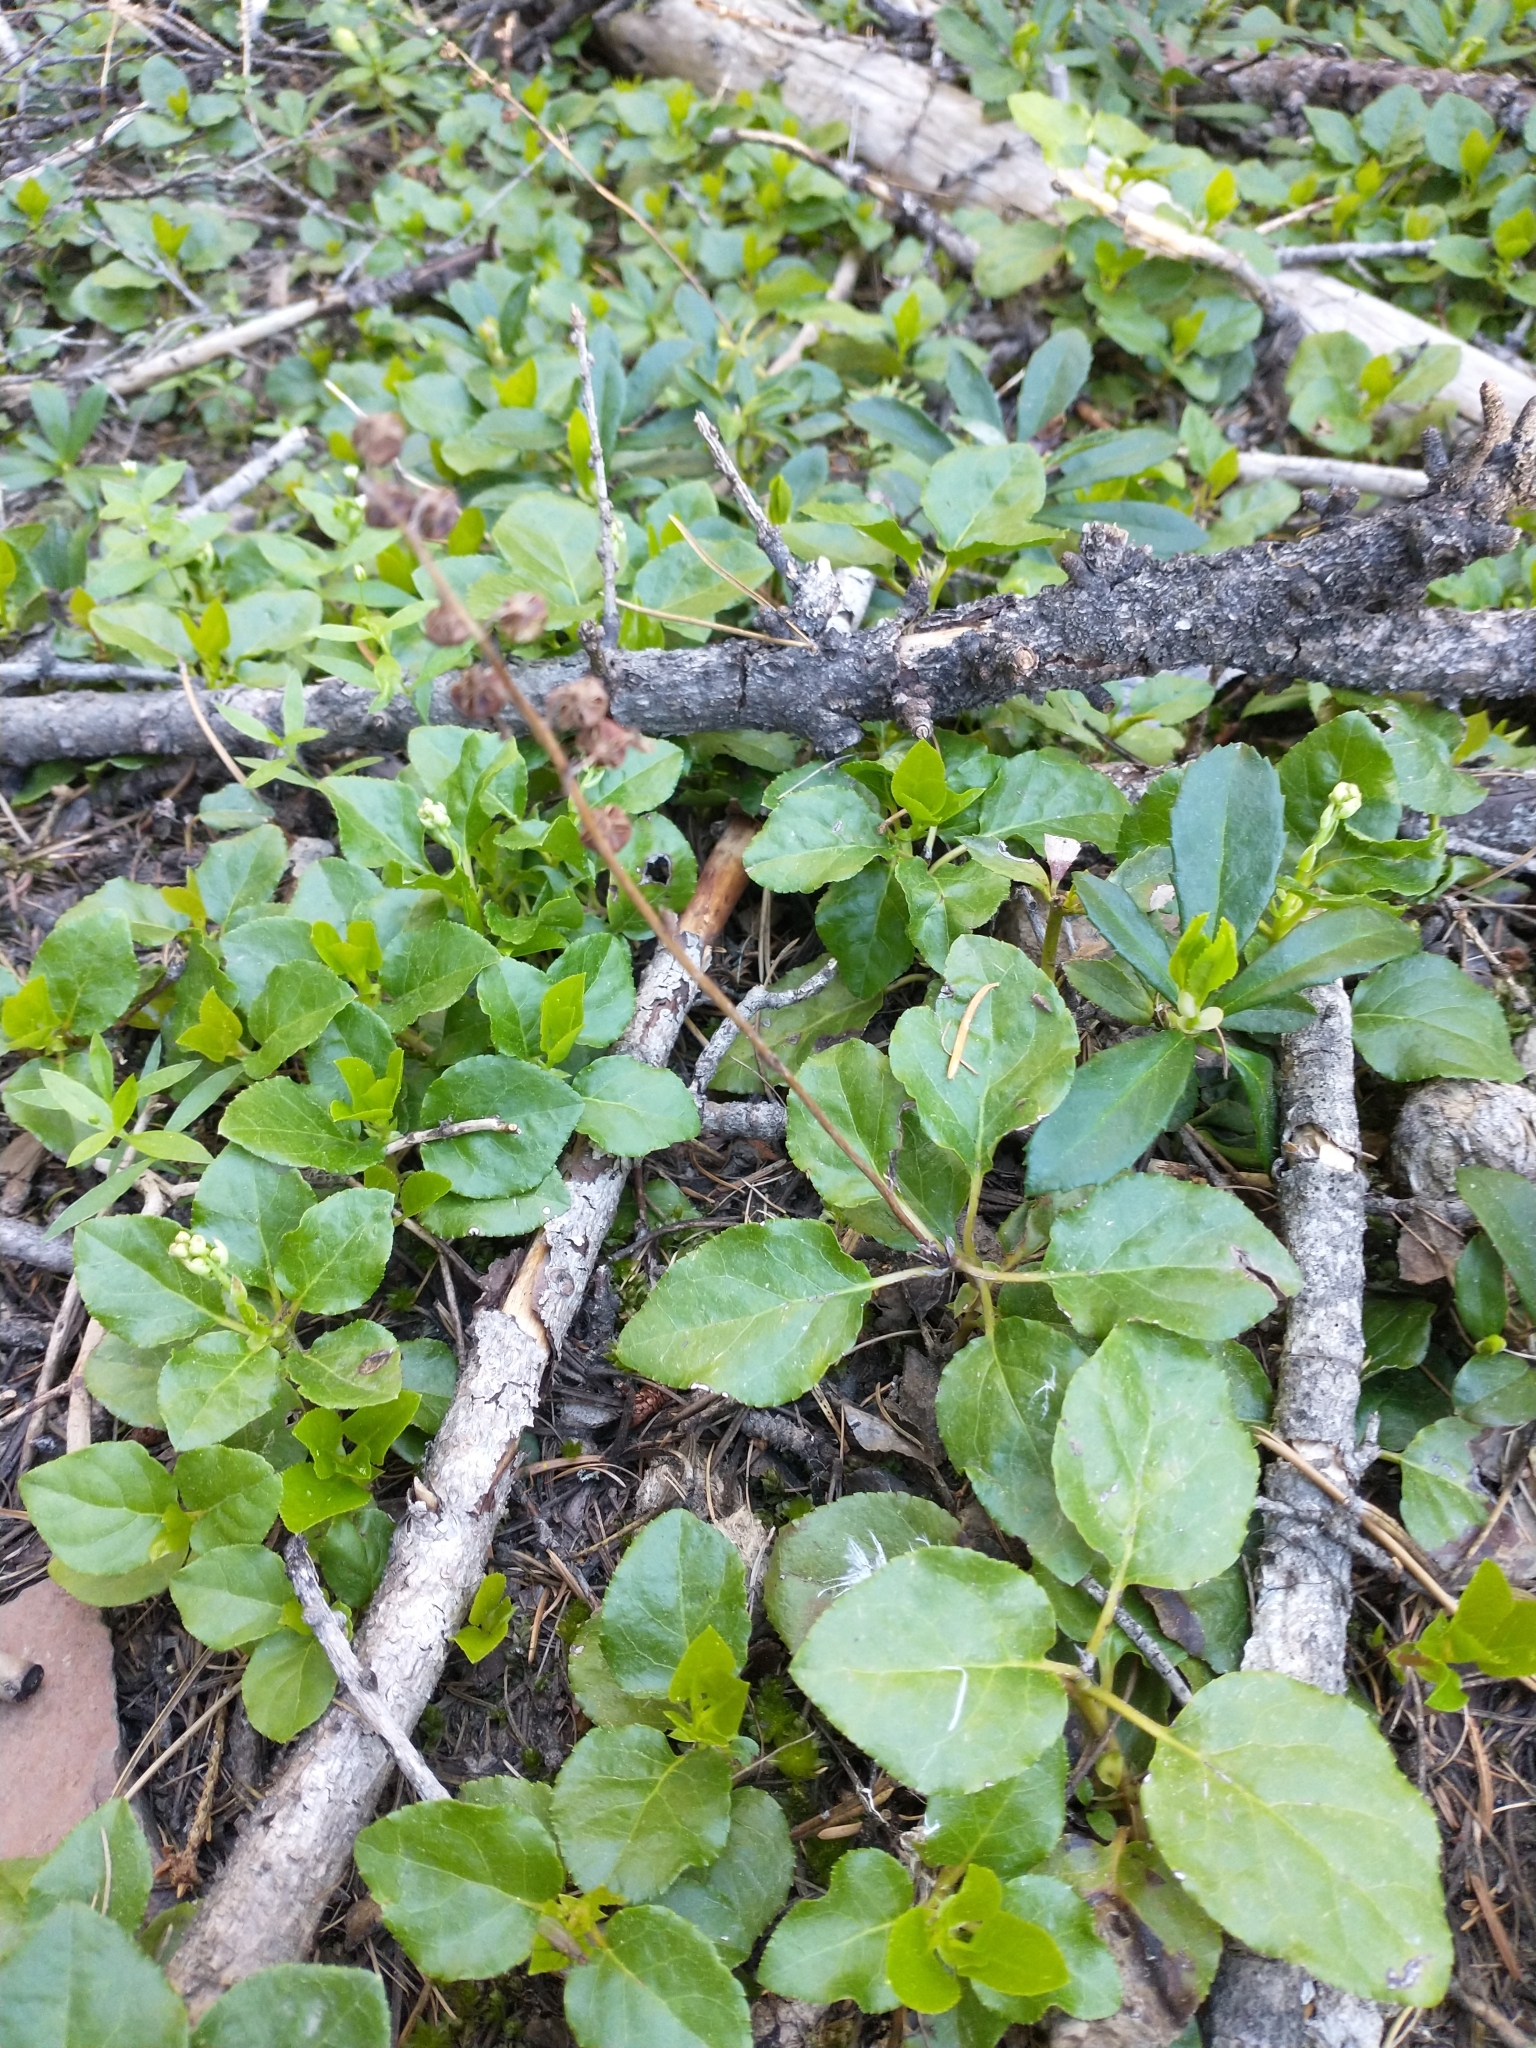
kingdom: Plantae
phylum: Tracheophyta
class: Magnoliopsida
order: Ericales
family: Ericaceae
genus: Orthilia
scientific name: Orthilia secunda
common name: One-sided orthilia
